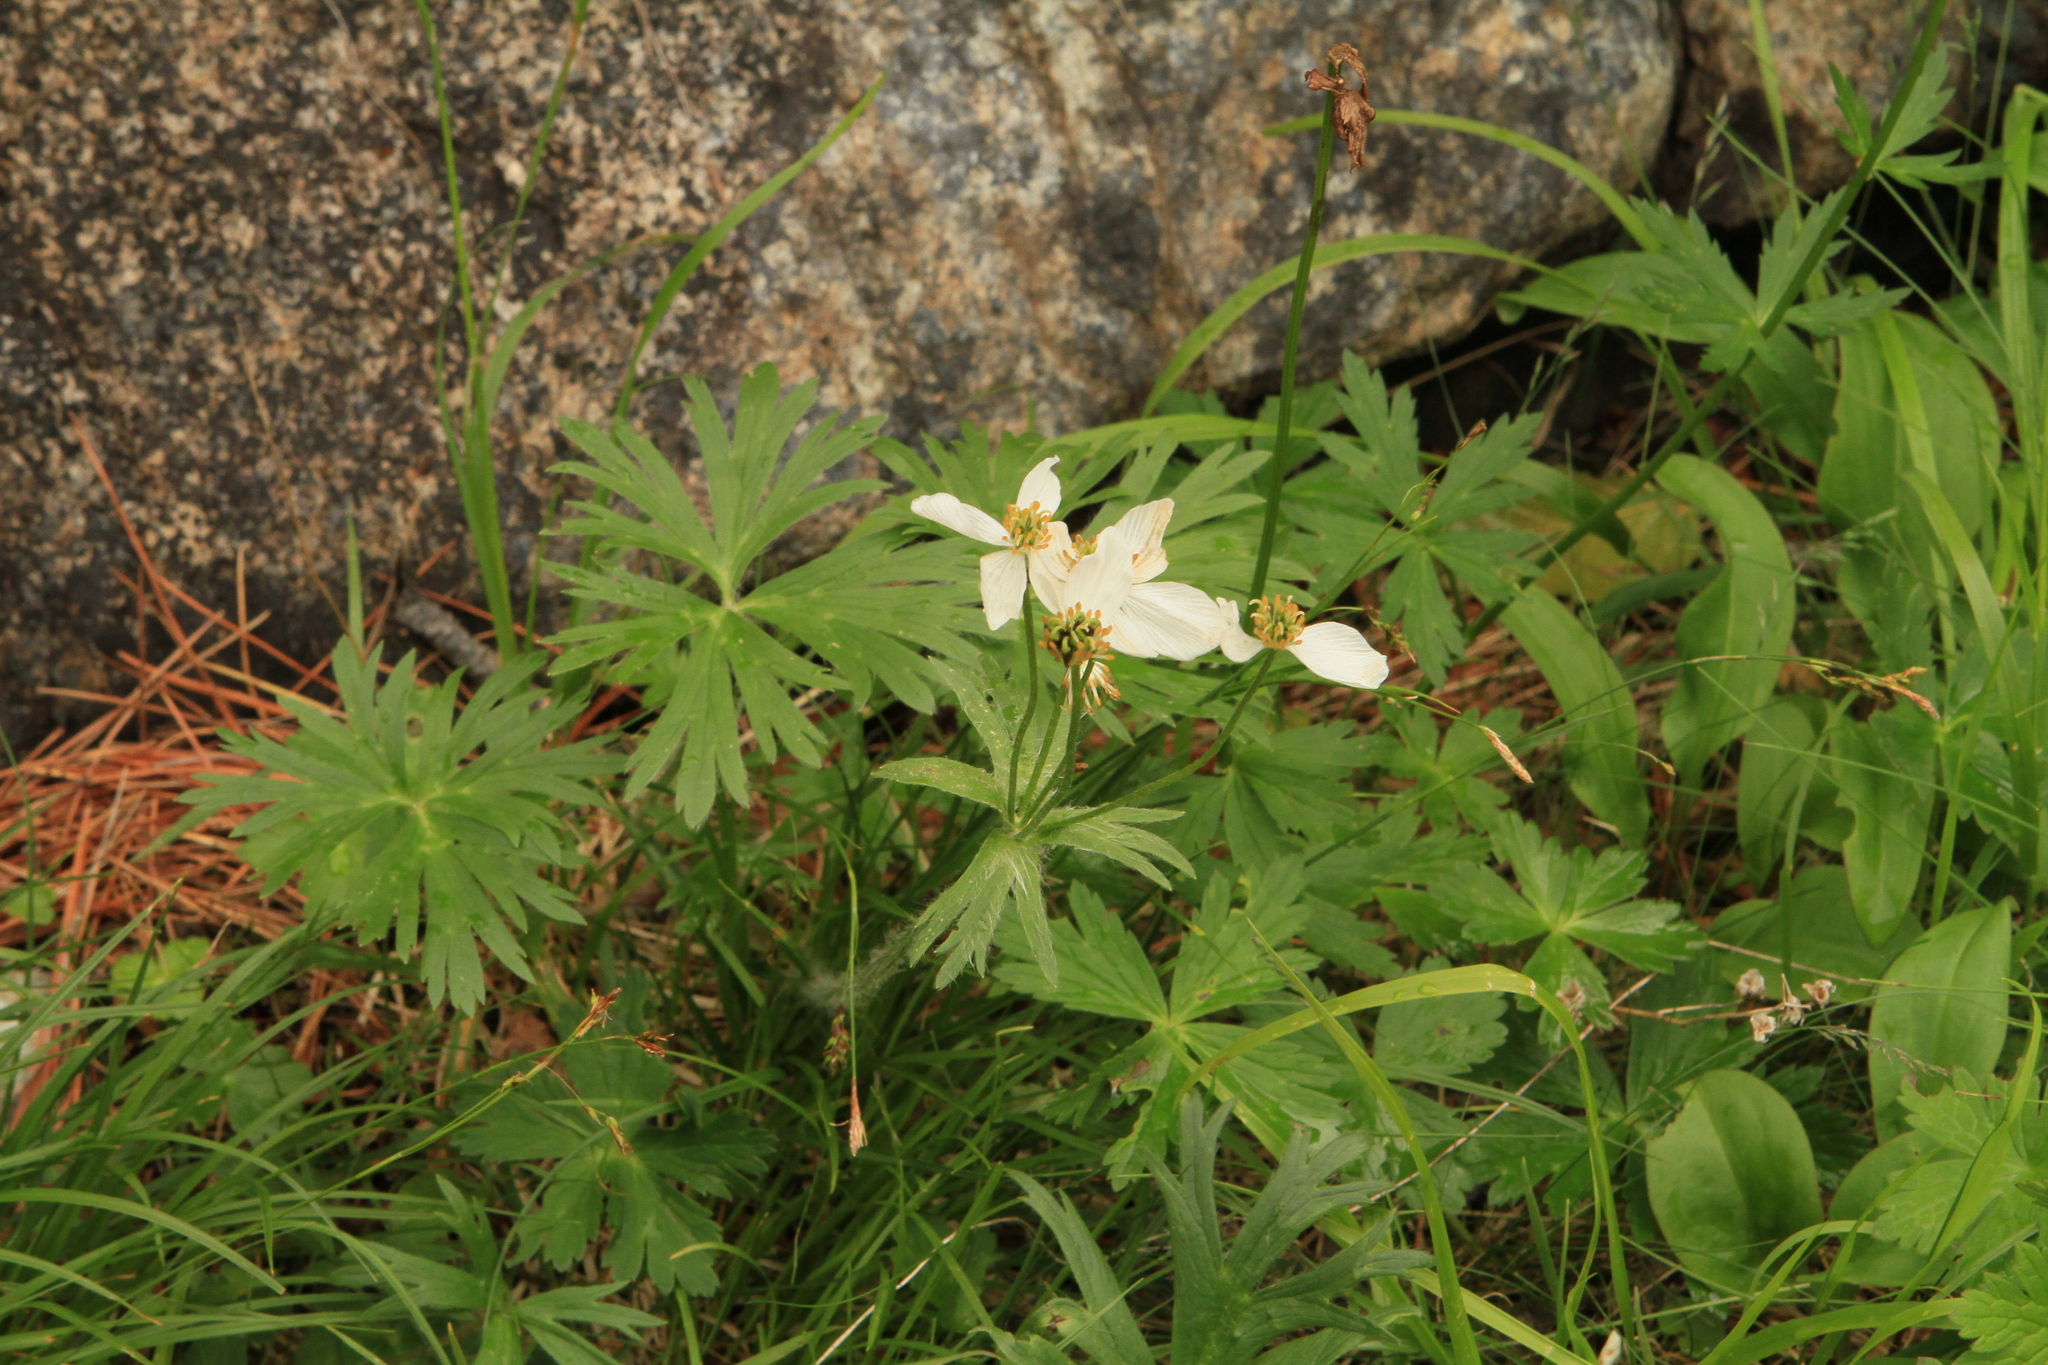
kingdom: Plantae
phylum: Tracheophyta
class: Magnoliopsida
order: Ranunculales
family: Ranunculaceae
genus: Anemonastrum
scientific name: Anemonastrum narcissiflorum
